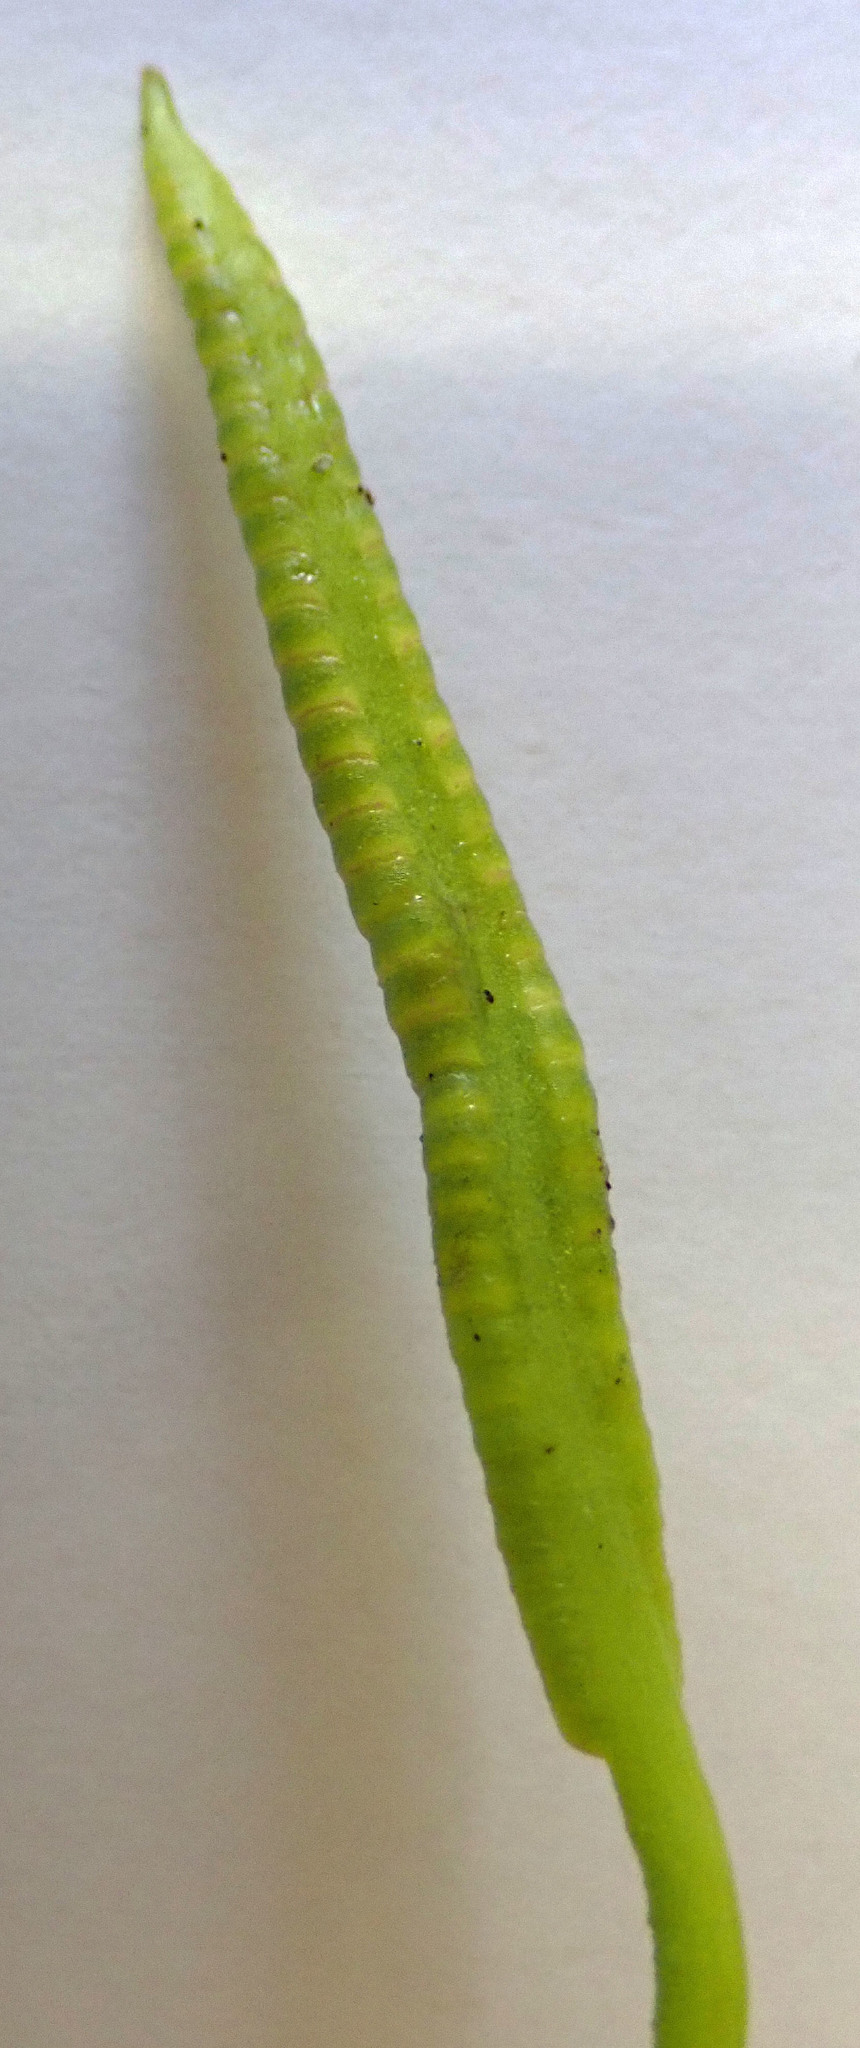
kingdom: Plantae
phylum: Tracheophyta
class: Polypodiopsida
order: Ophioglossales
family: Ophioglossaceae
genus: Ophioglossum
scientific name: Ophioglossum petiolatum
